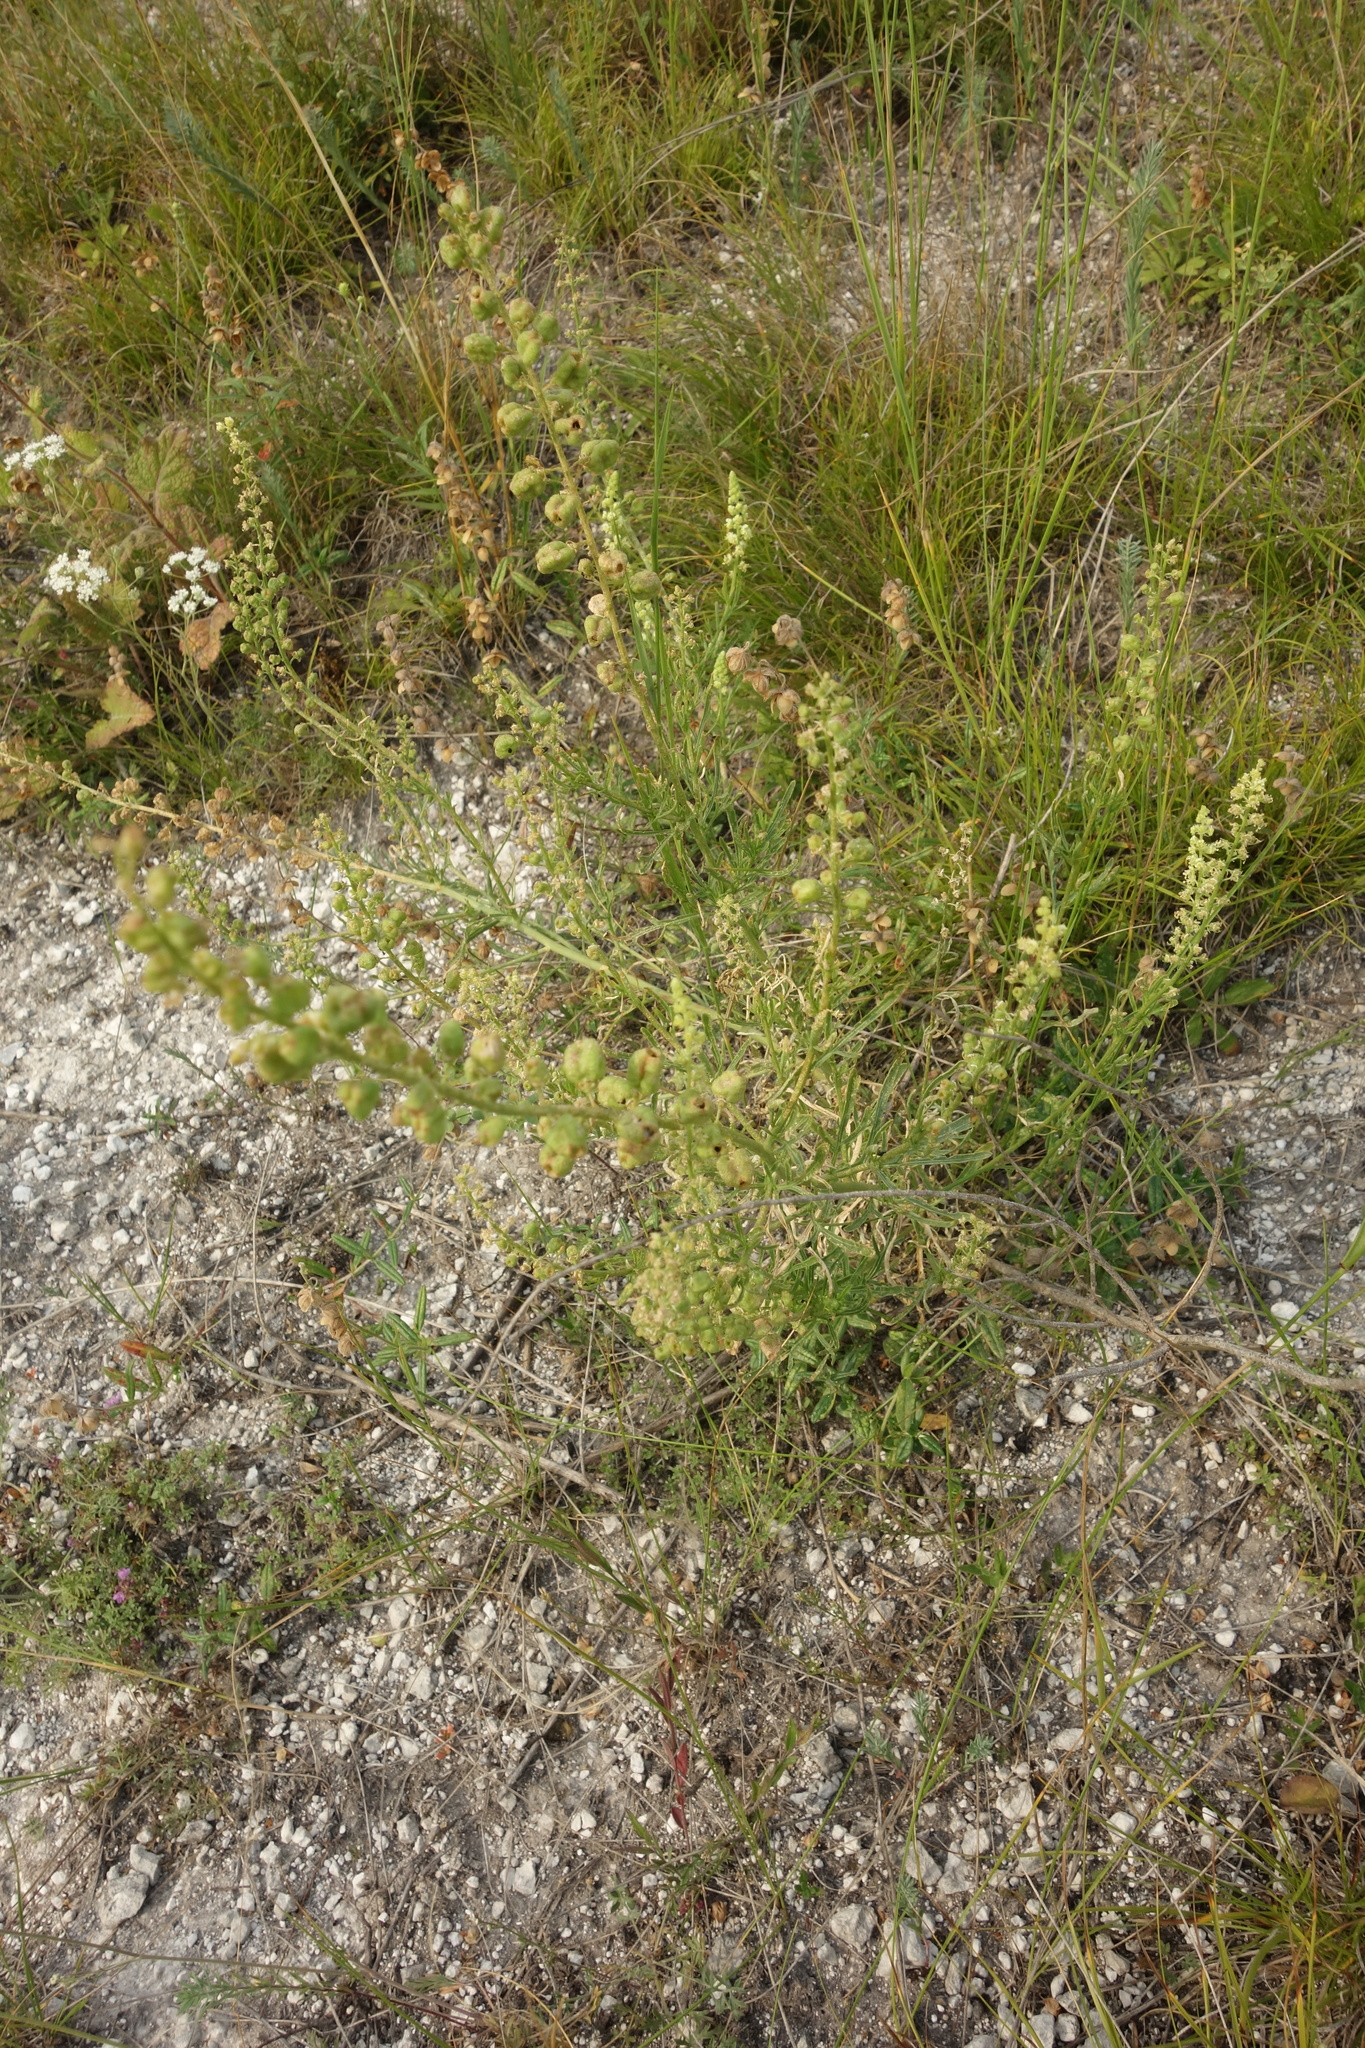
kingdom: Plantae
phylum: Tracheophyta
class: Magnoliopsida
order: Brassicales
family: Resedaceae
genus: Reseda
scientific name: Reseda lutea
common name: Wild mignonette
